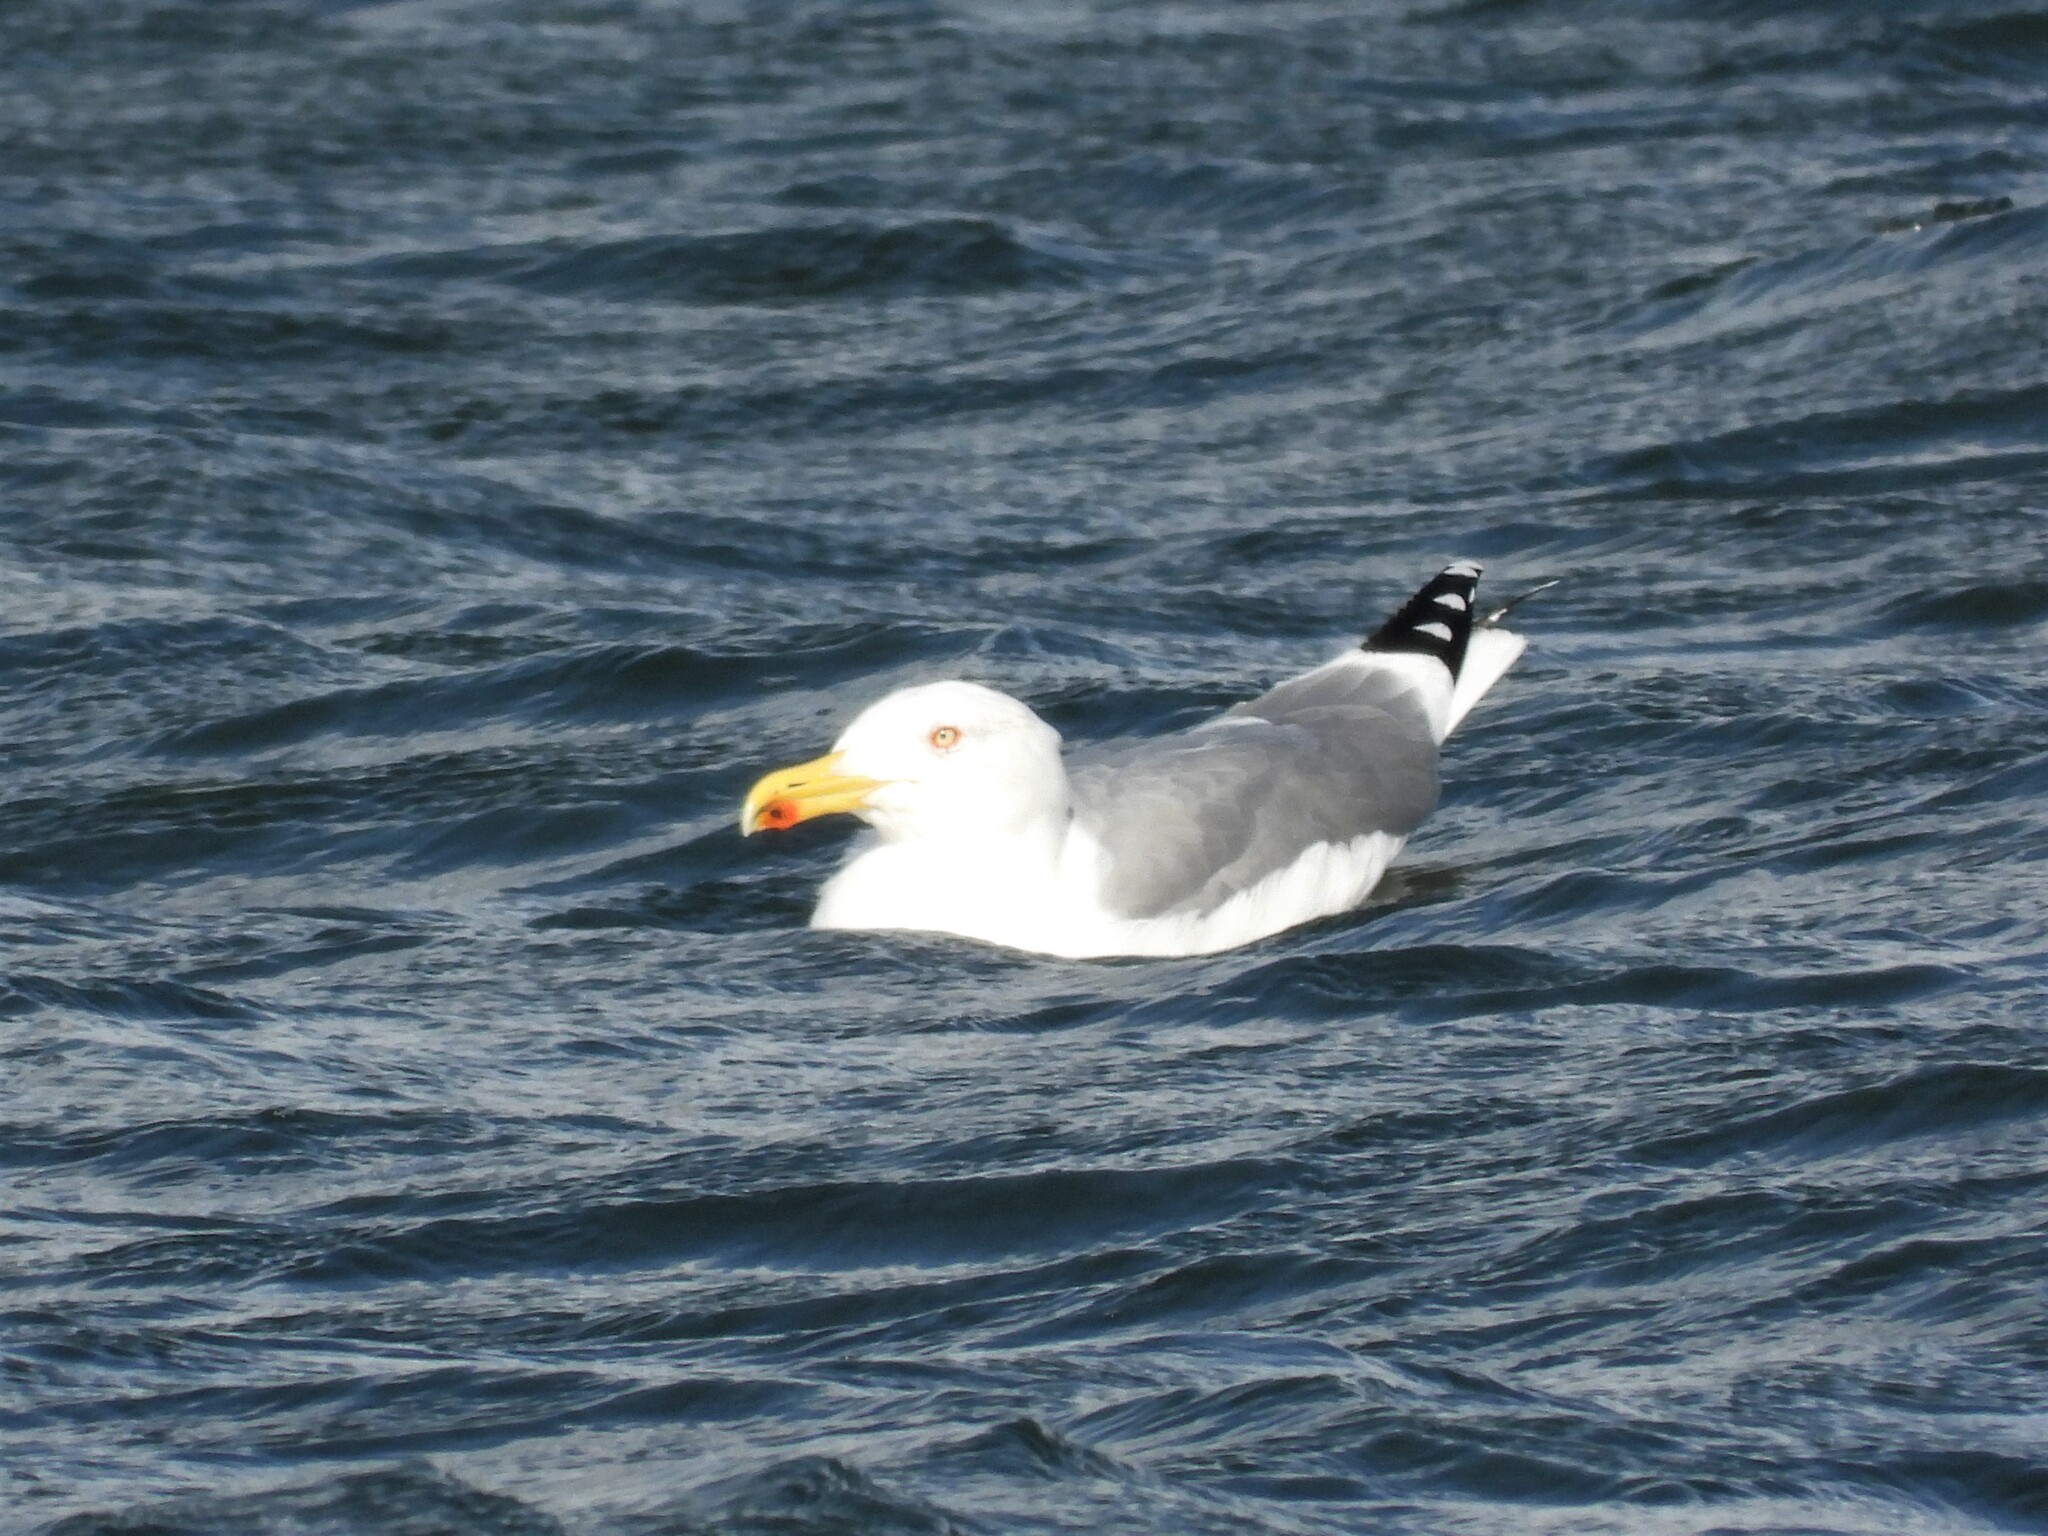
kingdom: Animalia
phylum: Chordata
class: Aves
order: Charadriiformes
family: Laridae
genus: Larus
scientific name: Larus michahellis
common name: Yellow-legged gull
